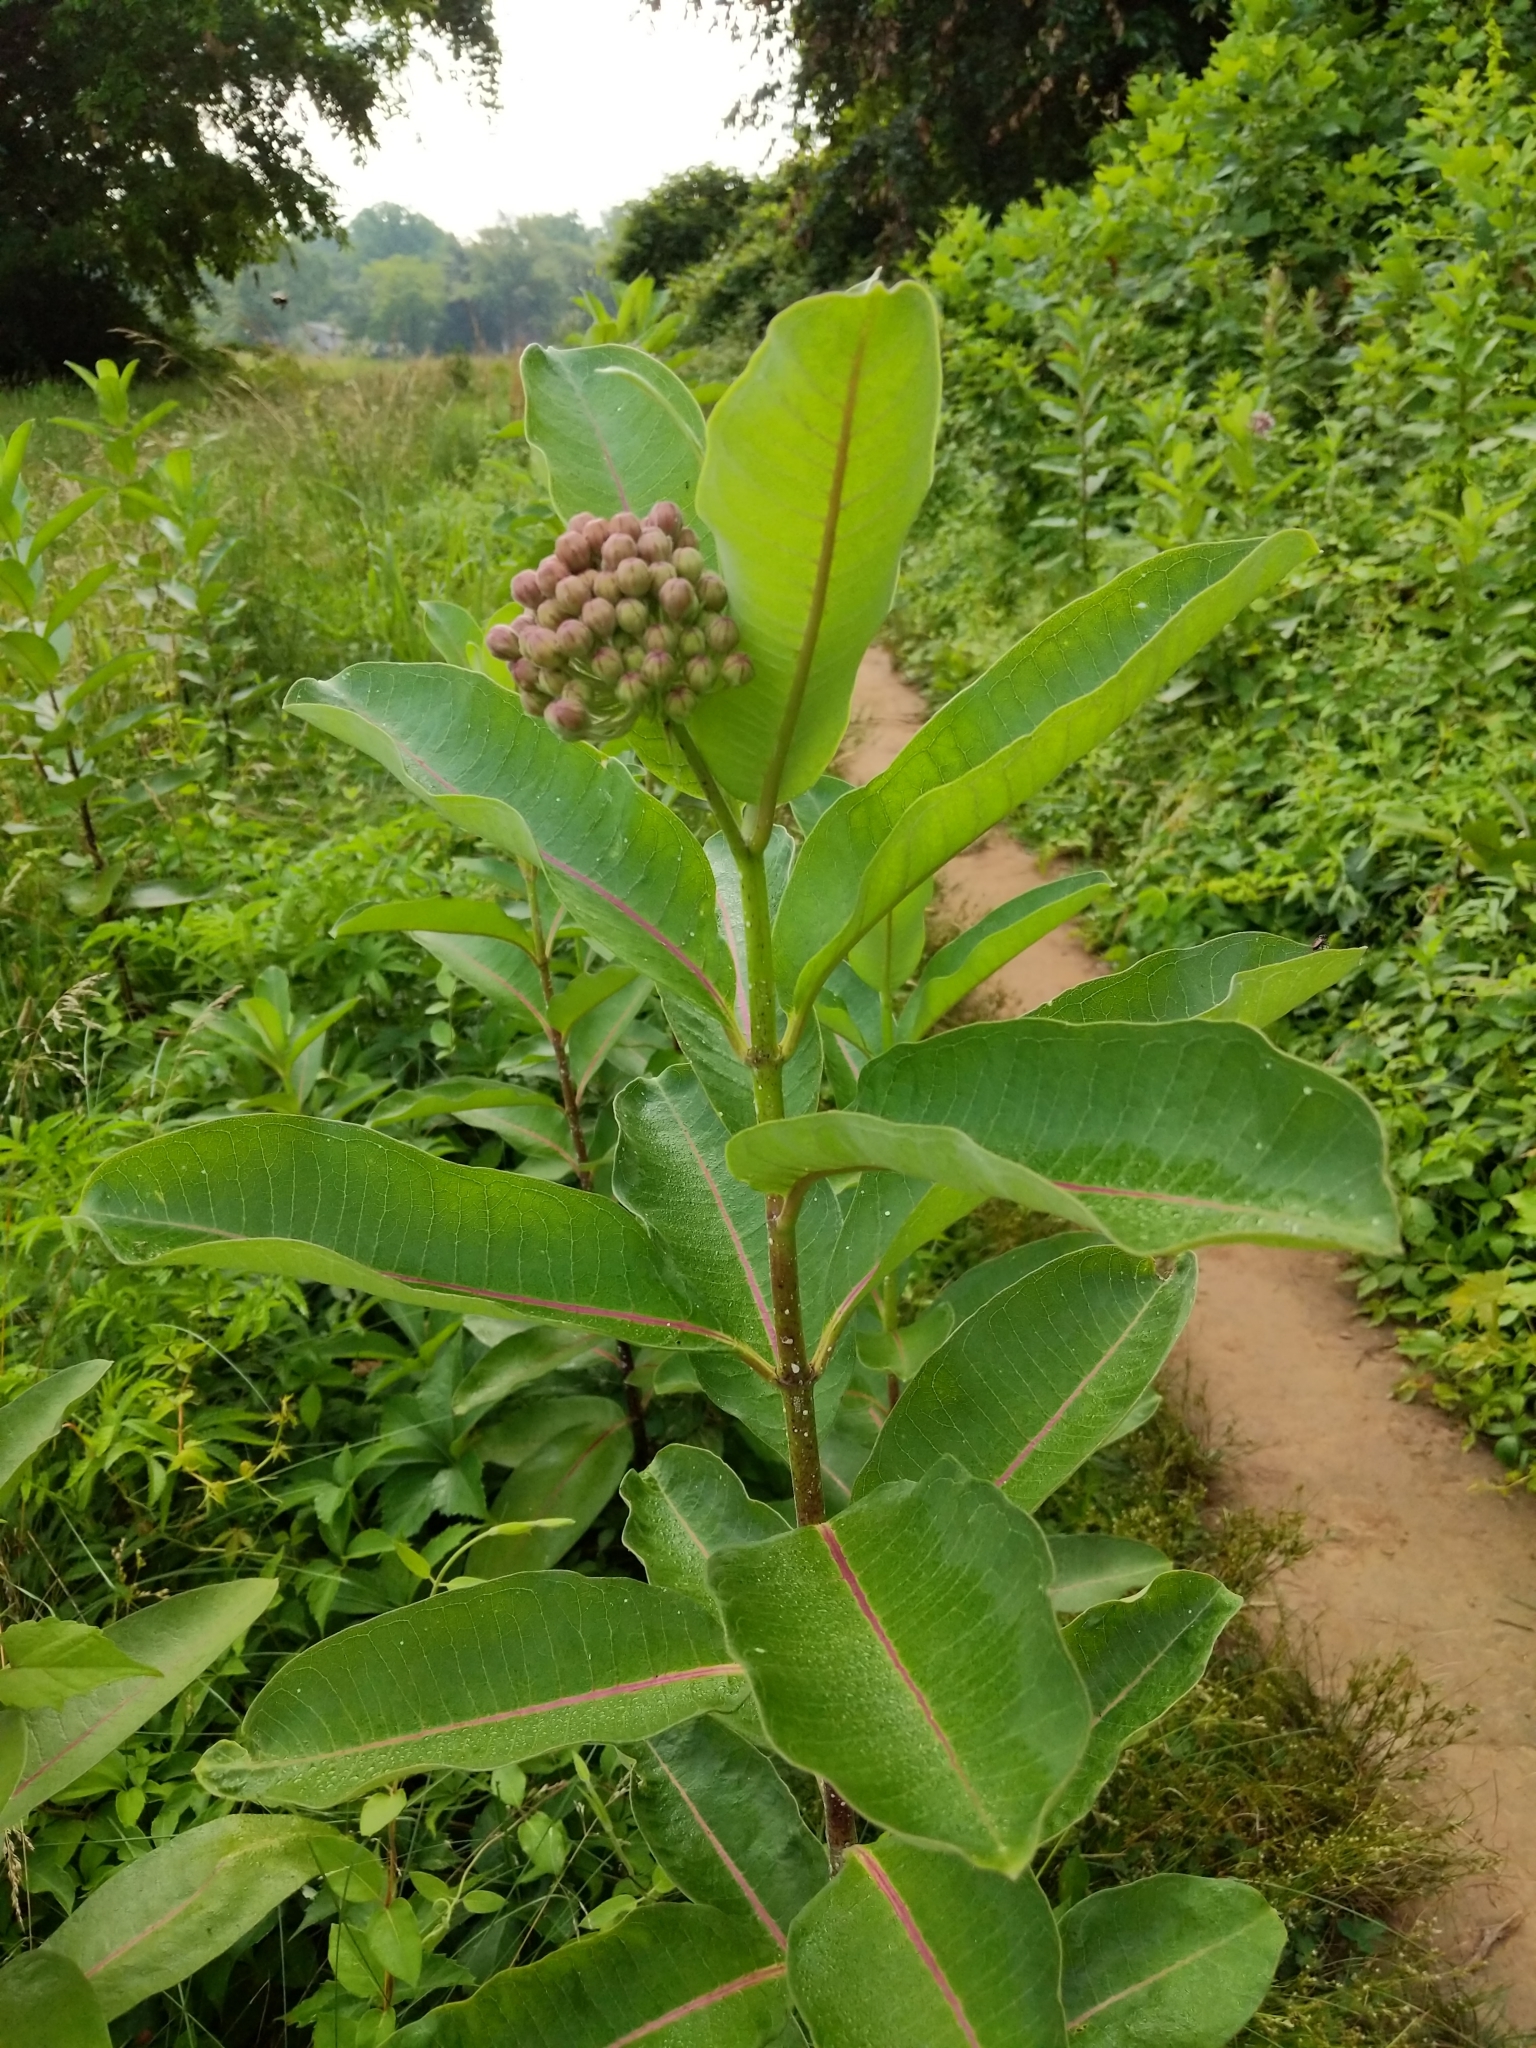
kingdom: Plantae
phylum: Tracheophyta
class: Magnoliopsida
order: Gentianales
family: Apocynaceae
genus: Asclepias
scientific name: Asclepias syriaca
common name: Common milkweed
